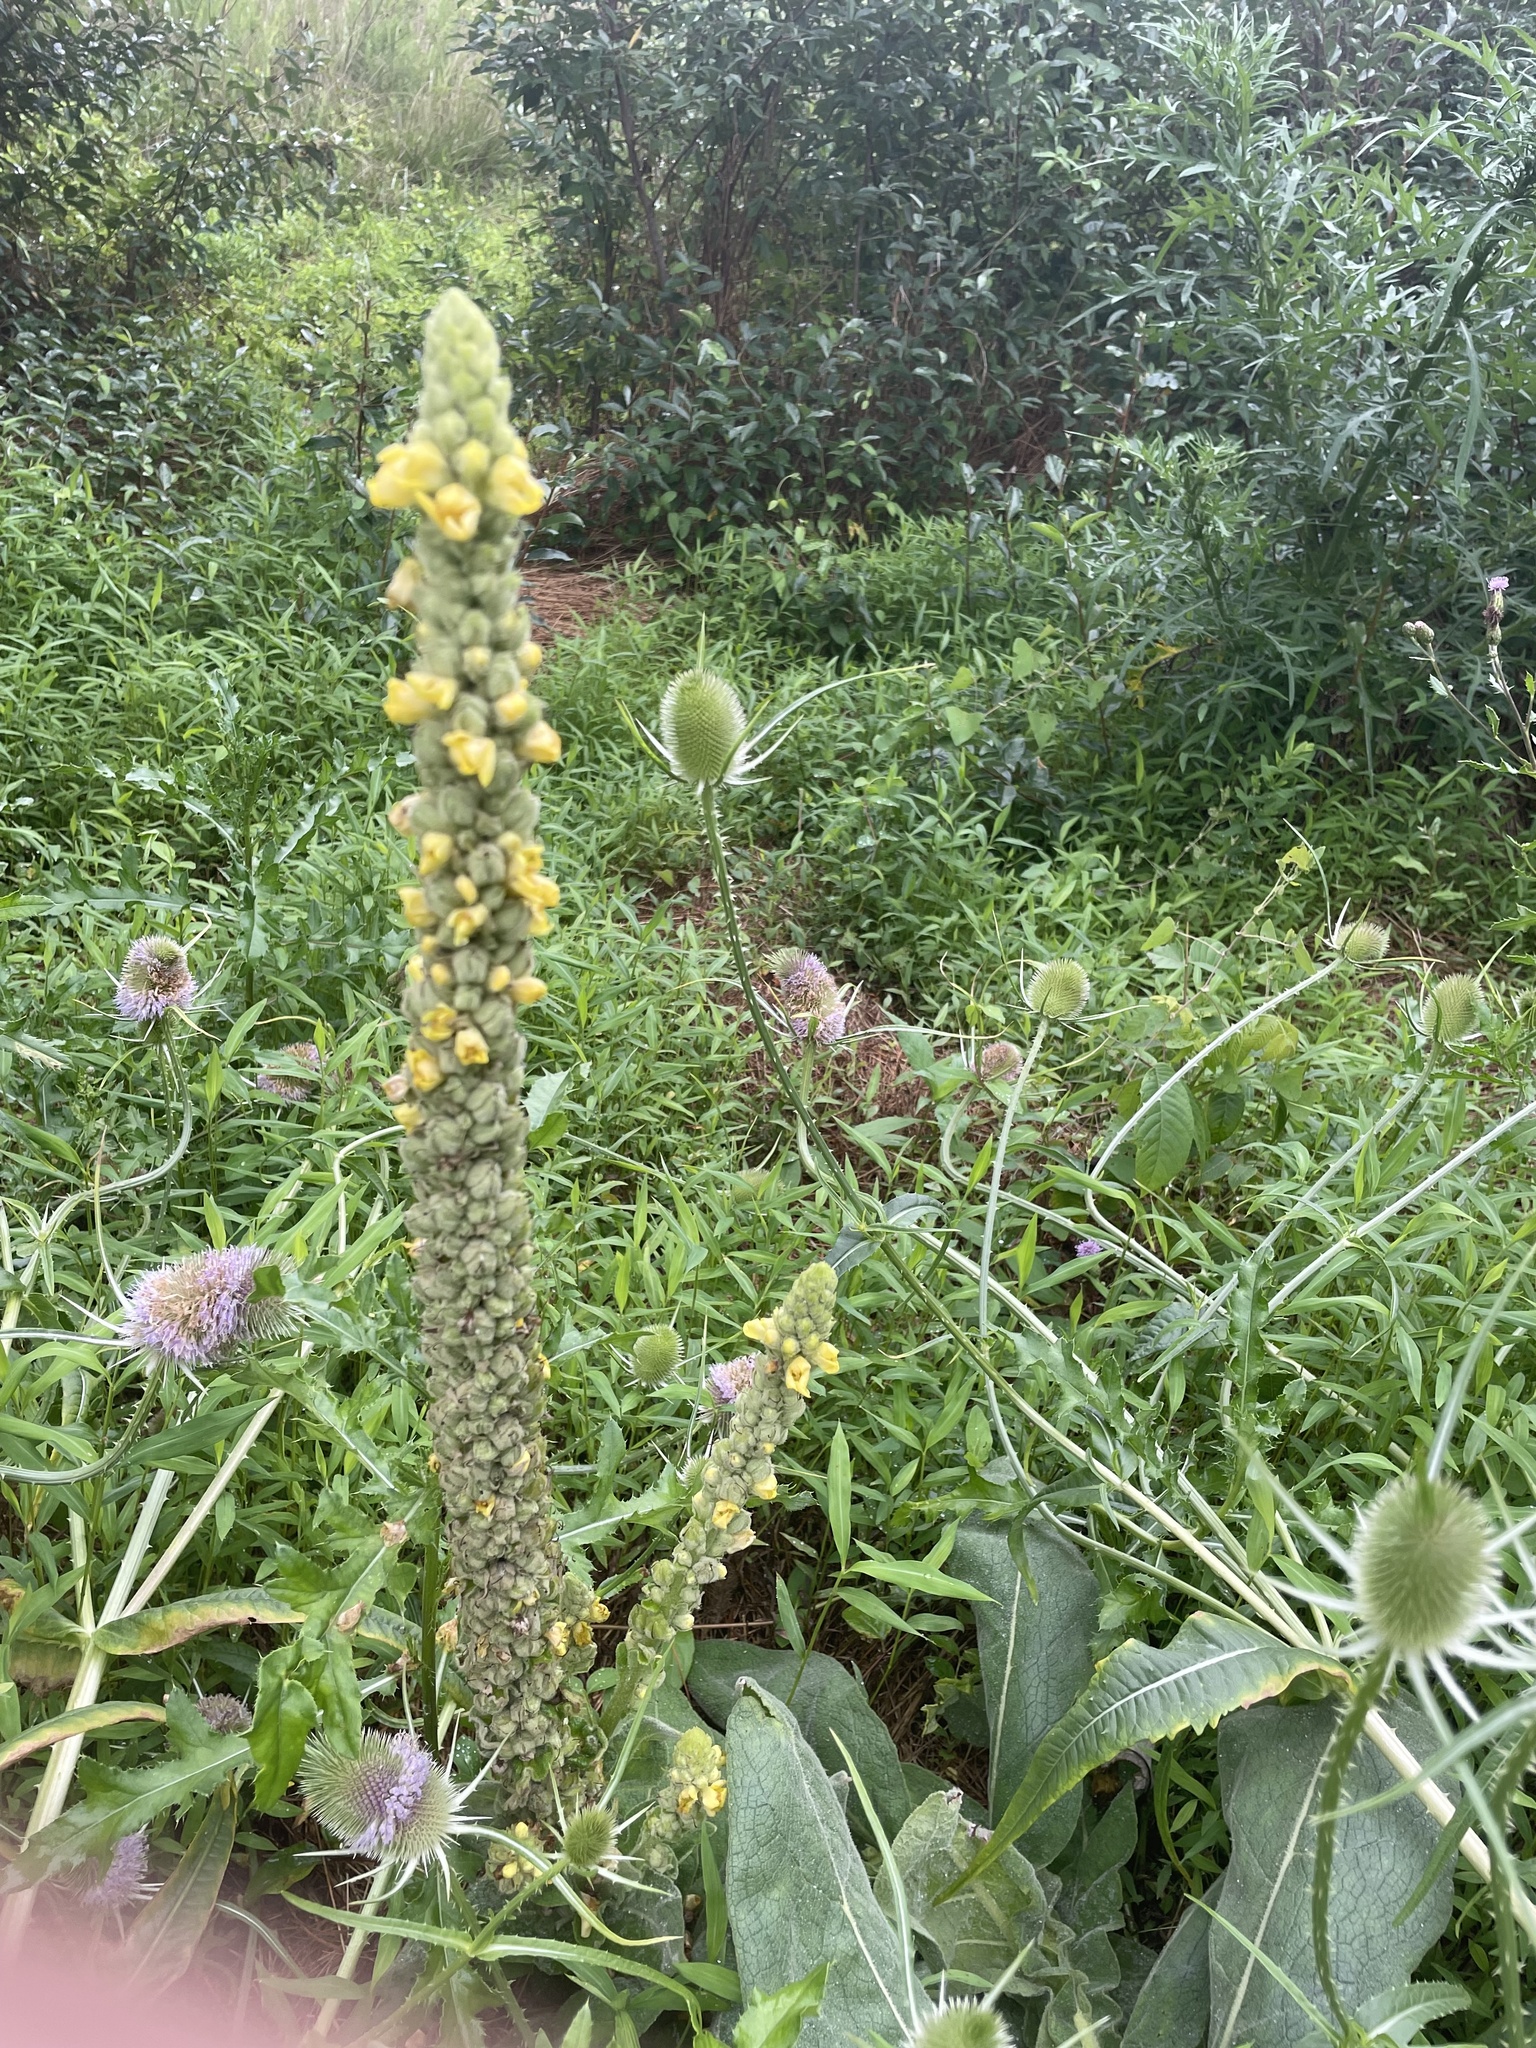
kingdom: Plantae
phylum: Tracheophyta
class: Magnoliopsida
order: Lamiales
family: Scrophulariaceae
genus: Verbascum
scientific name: Verbascum thapsus
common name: Common mullein
